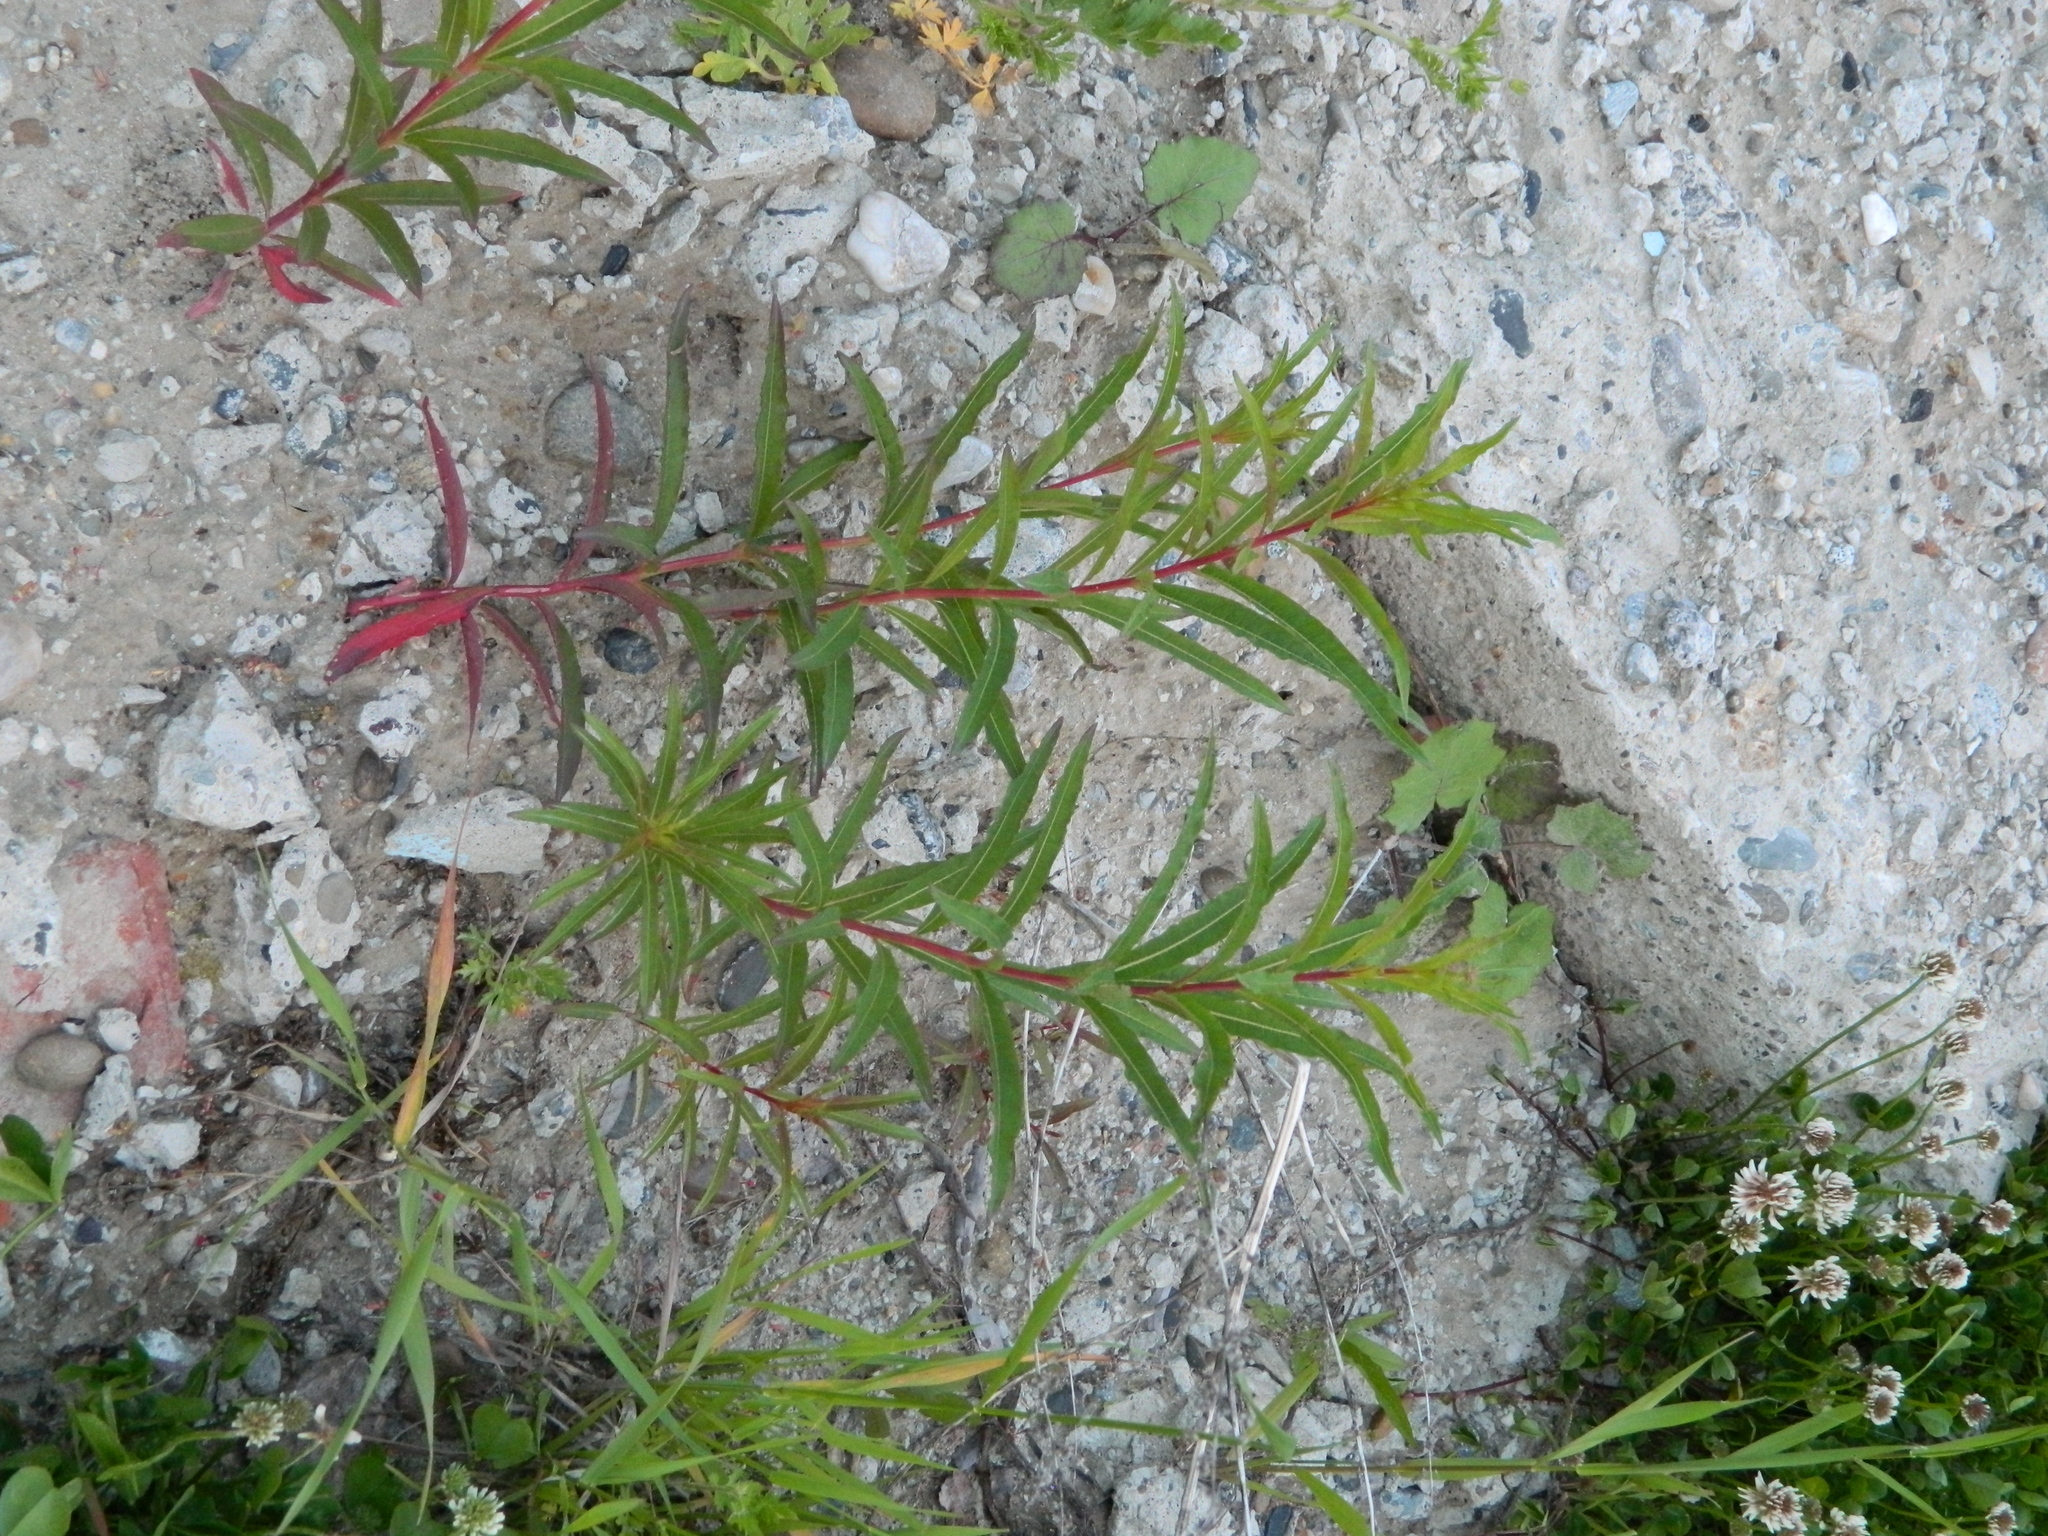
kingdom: Plantae
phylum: Tracheophyta
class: Magnoliopsida
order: Myrtales
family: Onagraceae
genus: Chamaenerion
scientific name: Chamaenerion angustifolium
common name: Fireweed
